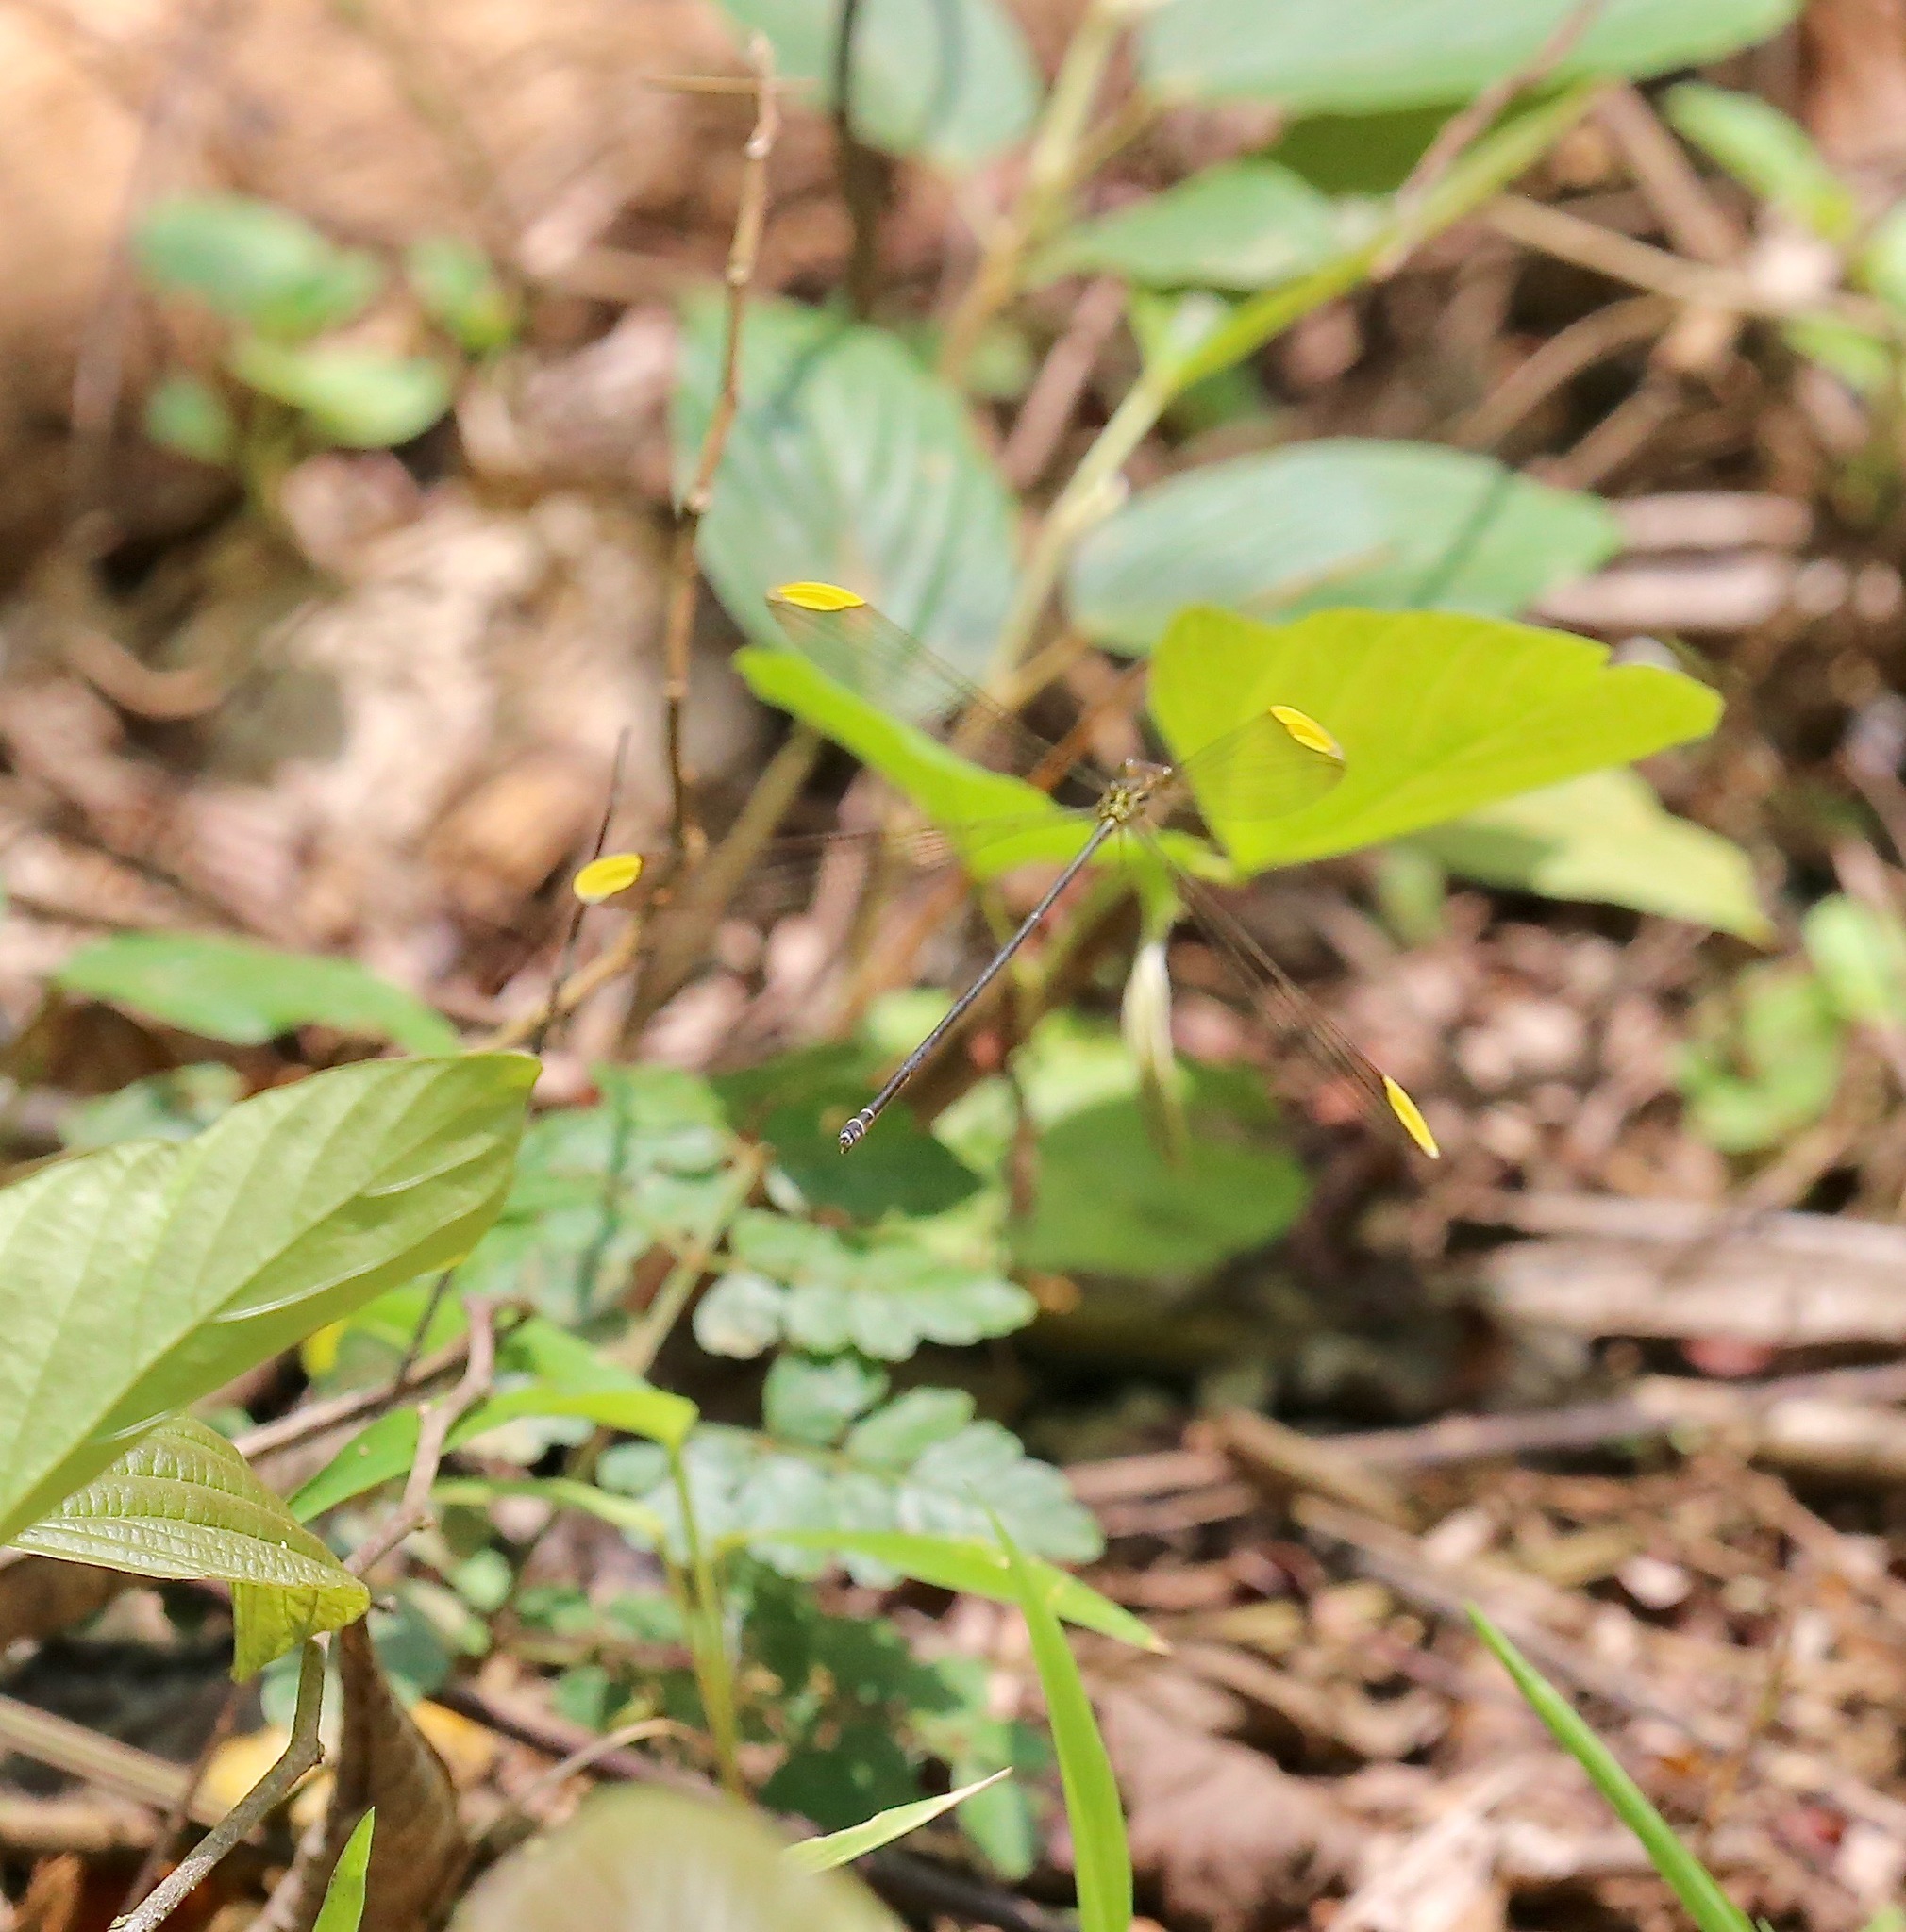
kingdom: Animalia
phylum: Arthropoda
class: Insecta
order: Odonata
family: Coenagrionidae
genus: Mecistogaster
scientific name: Mecistogaster ornata
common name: Ornate helicopter
